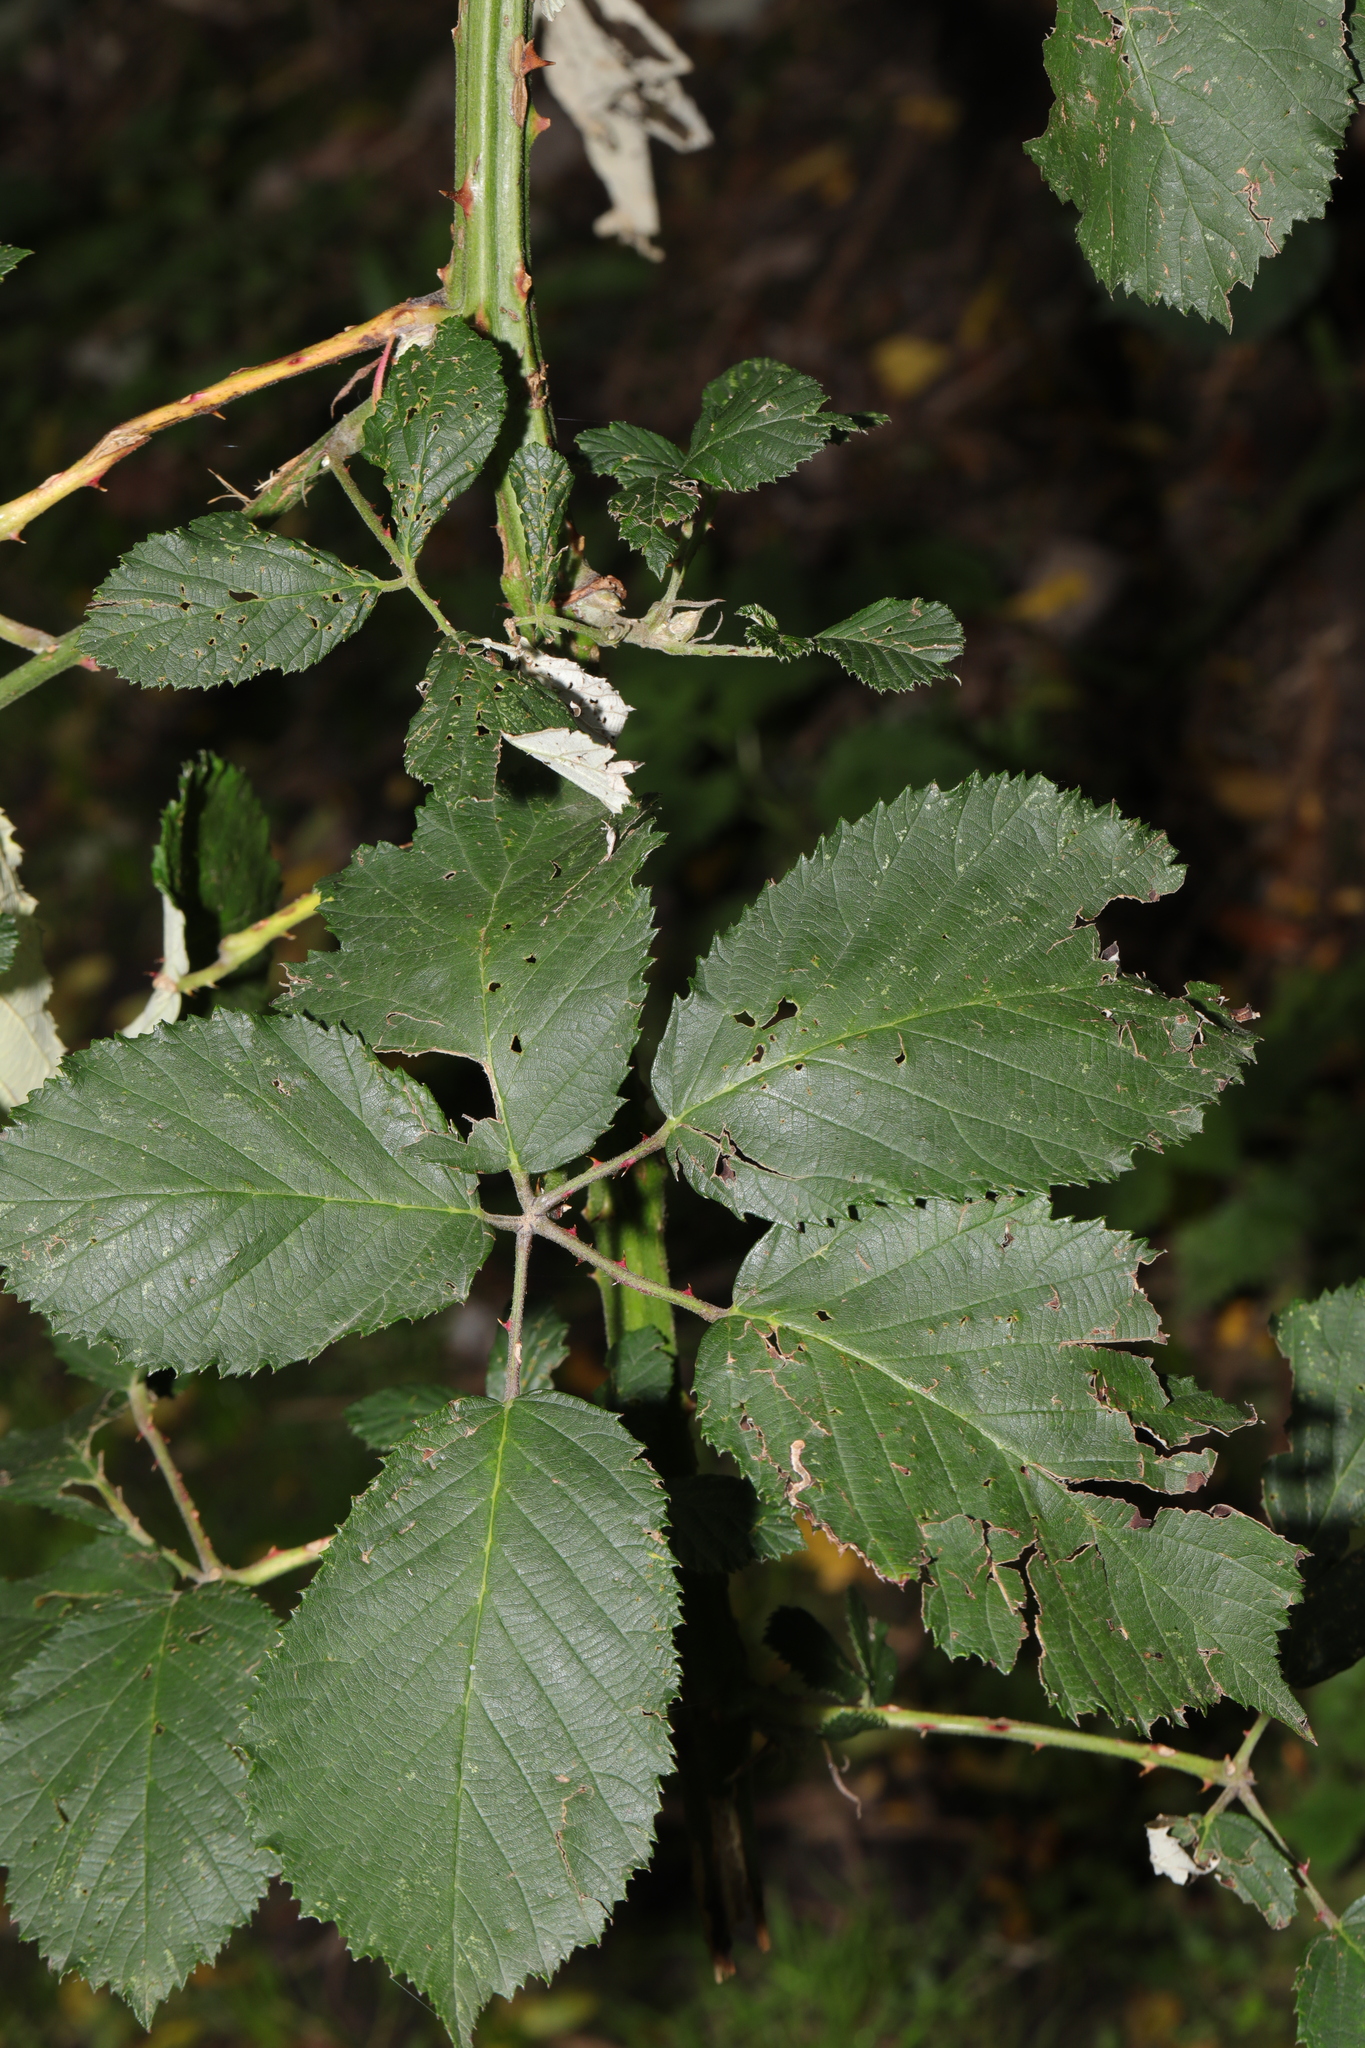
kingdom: Plantae
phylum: Tracheophyta
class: Magnoliopsida
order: Rosales
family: Rosaceae
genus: Rubus
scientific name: Rubus armeniacus
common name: Himalayan blackberry
